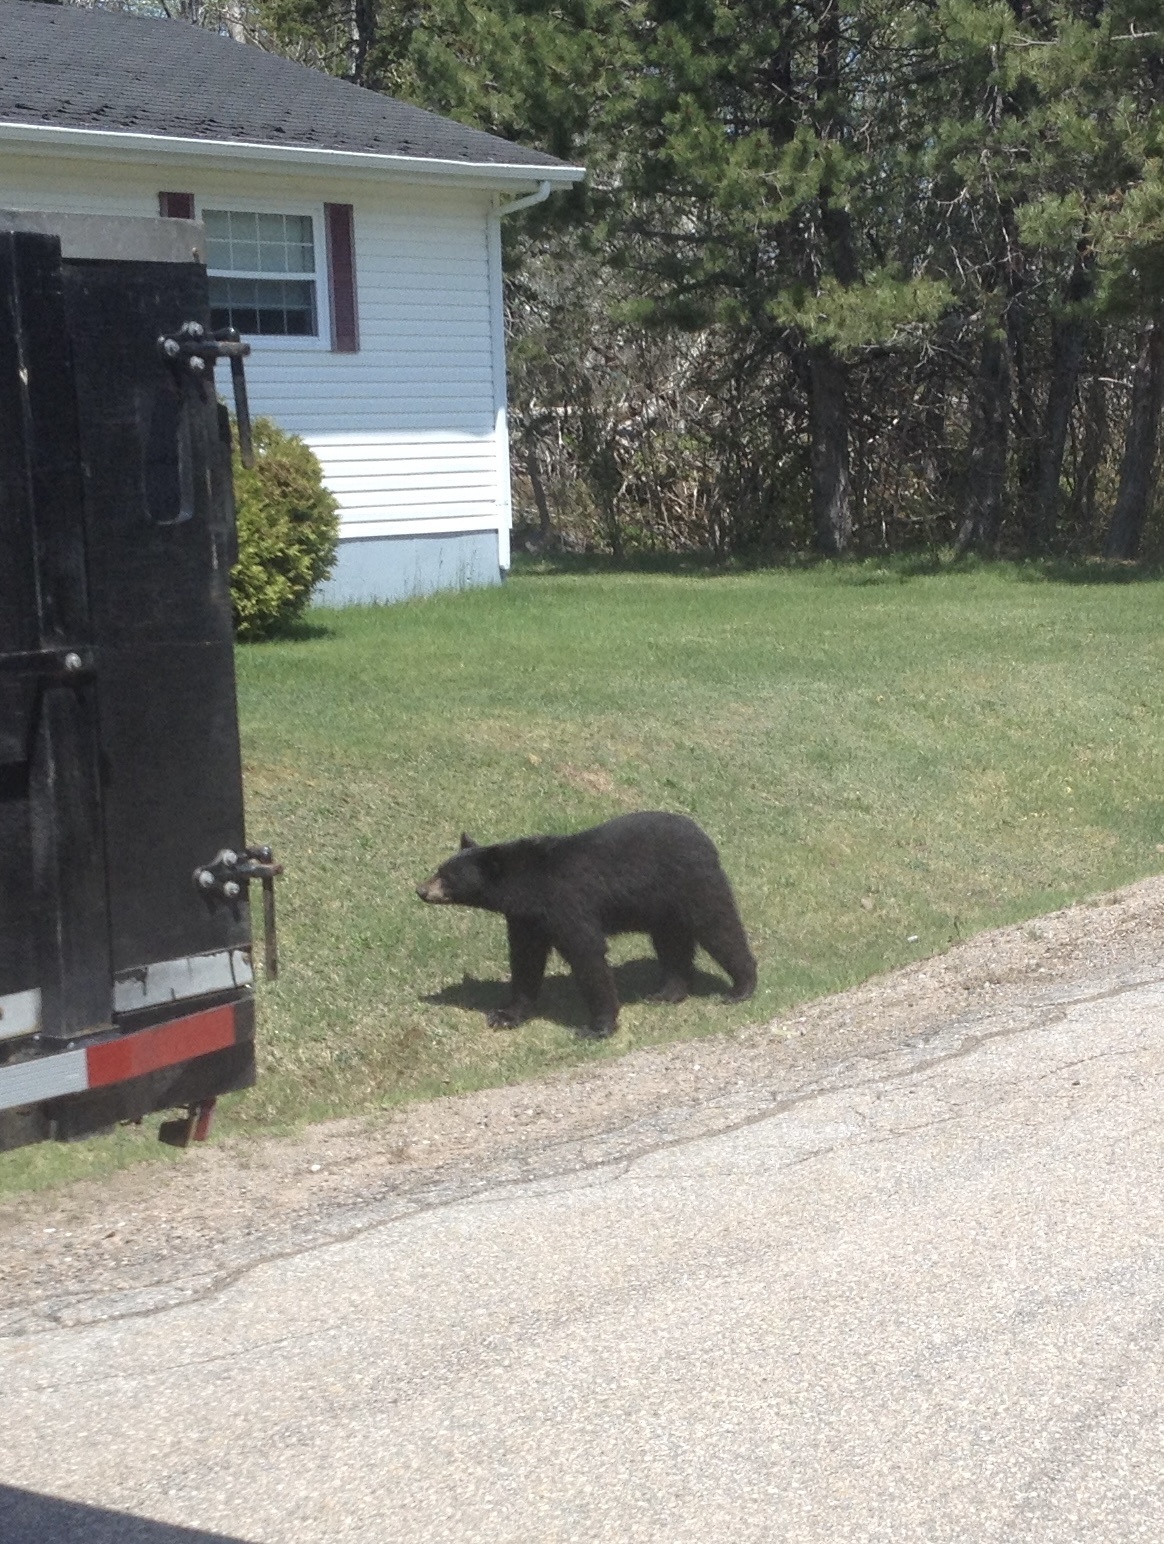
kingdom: Animalia
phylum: Chordata
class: Mammalia
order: Carnivora
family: Ursidae
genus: Ursus
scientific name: Ursus americanus
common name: American black bear
